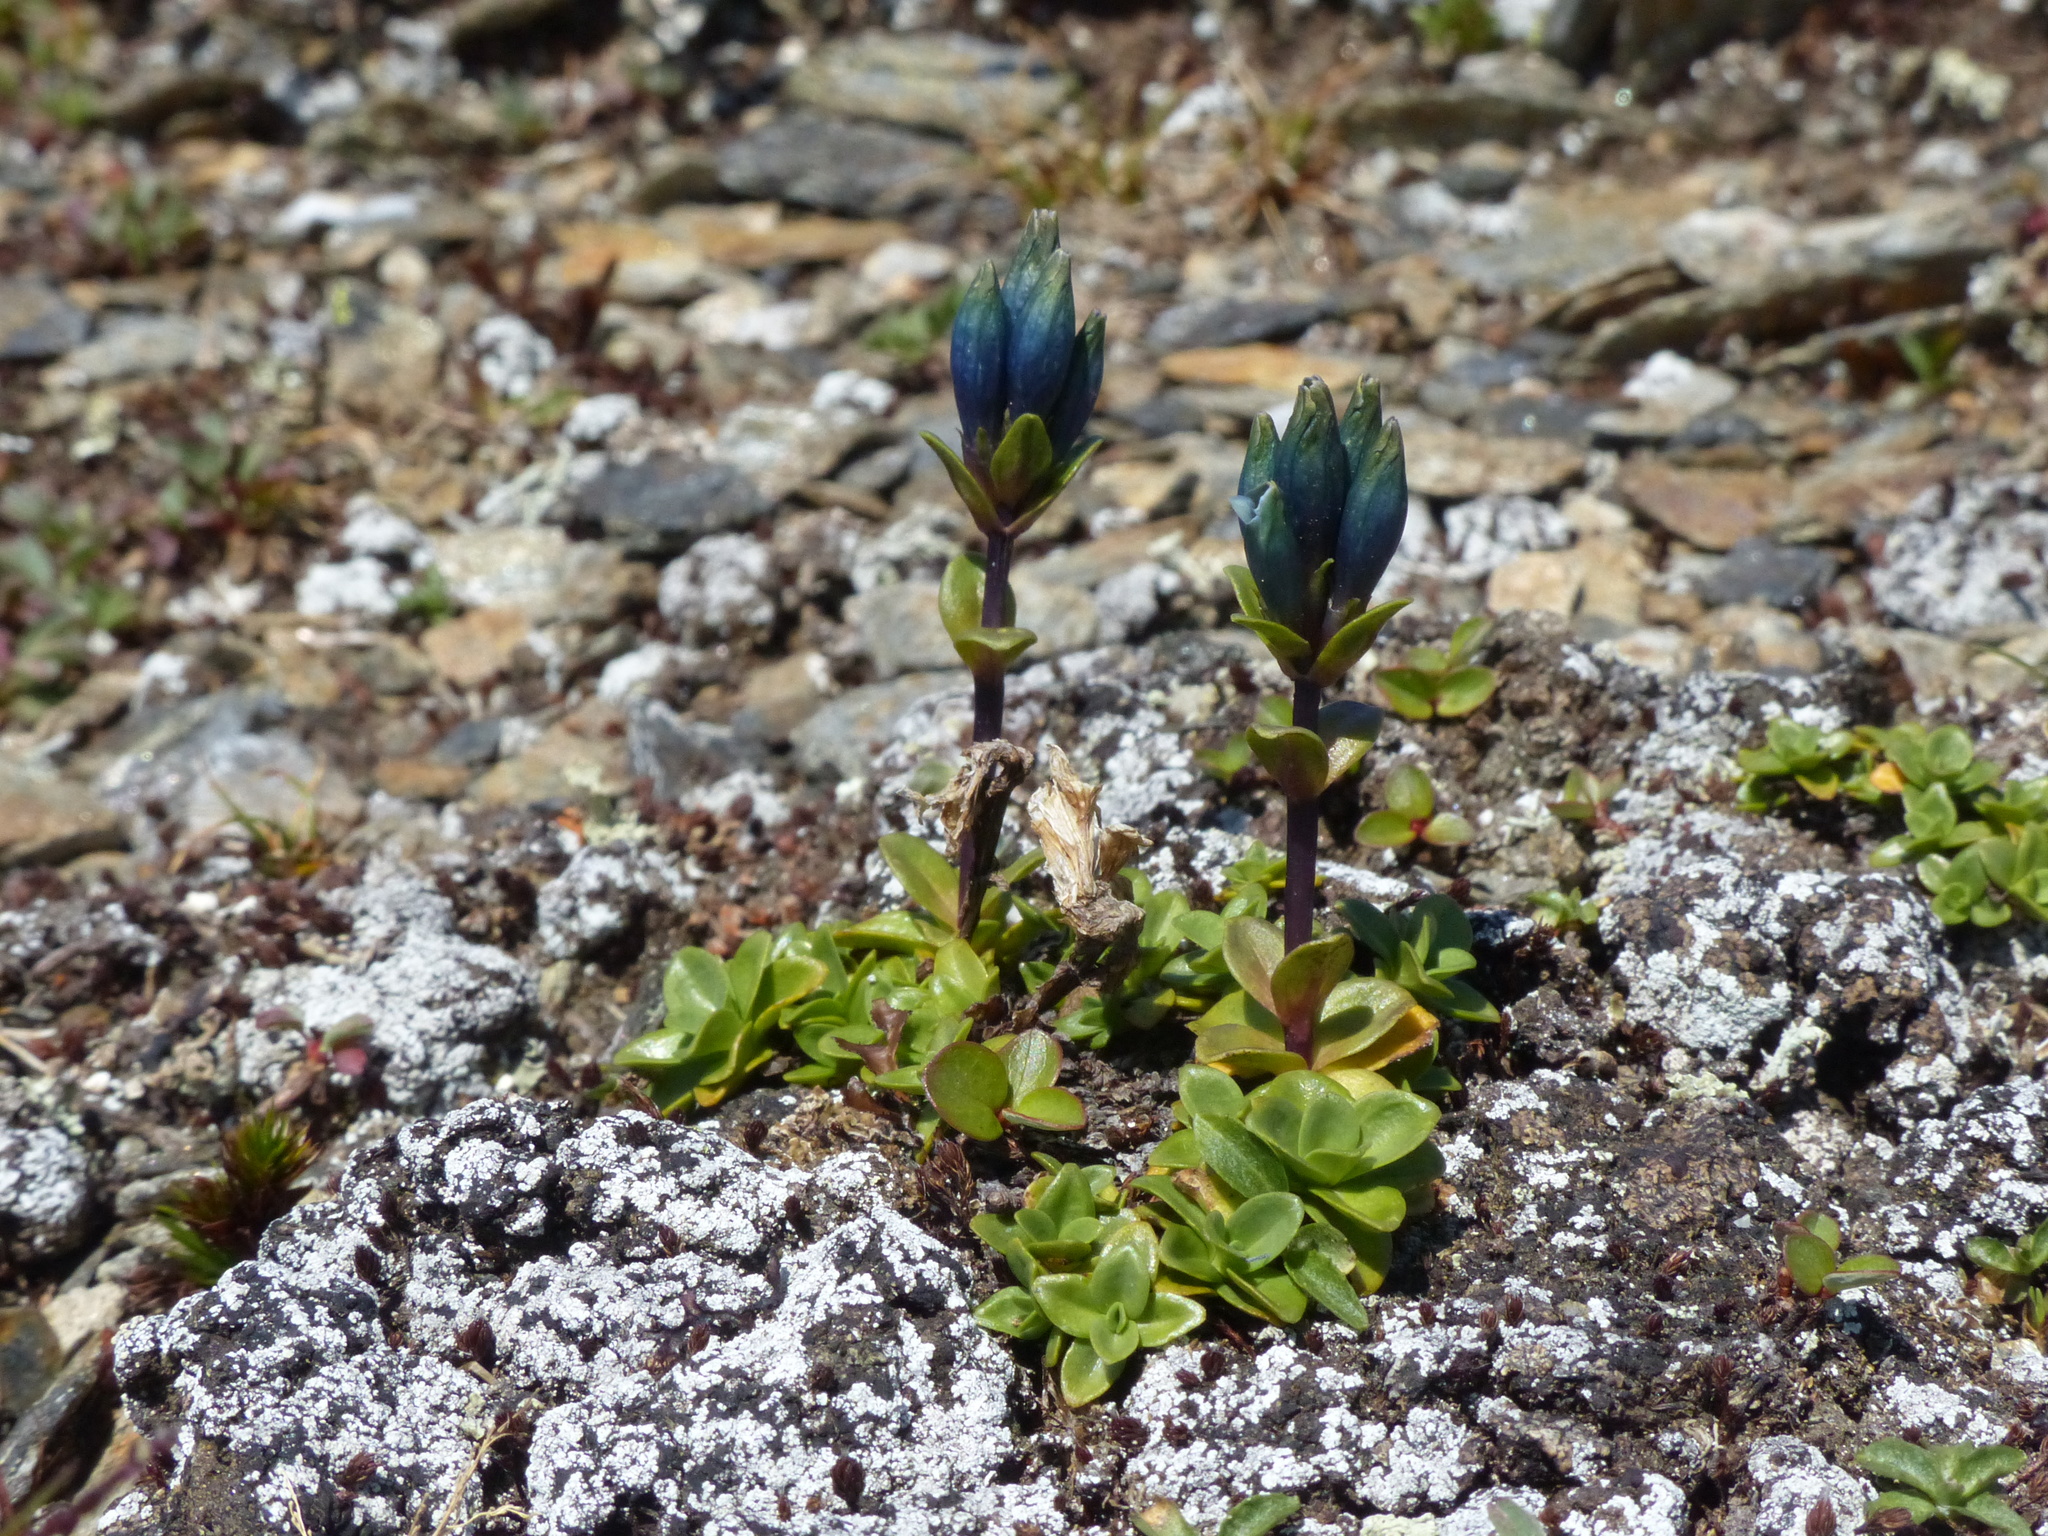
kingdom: Plantae
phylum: Tracheophyta
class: Magnoliopsida
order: Gentianales
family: Gentianaceae
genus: Gentiana
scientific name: Gentiana glauca
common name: Alpine gentian
